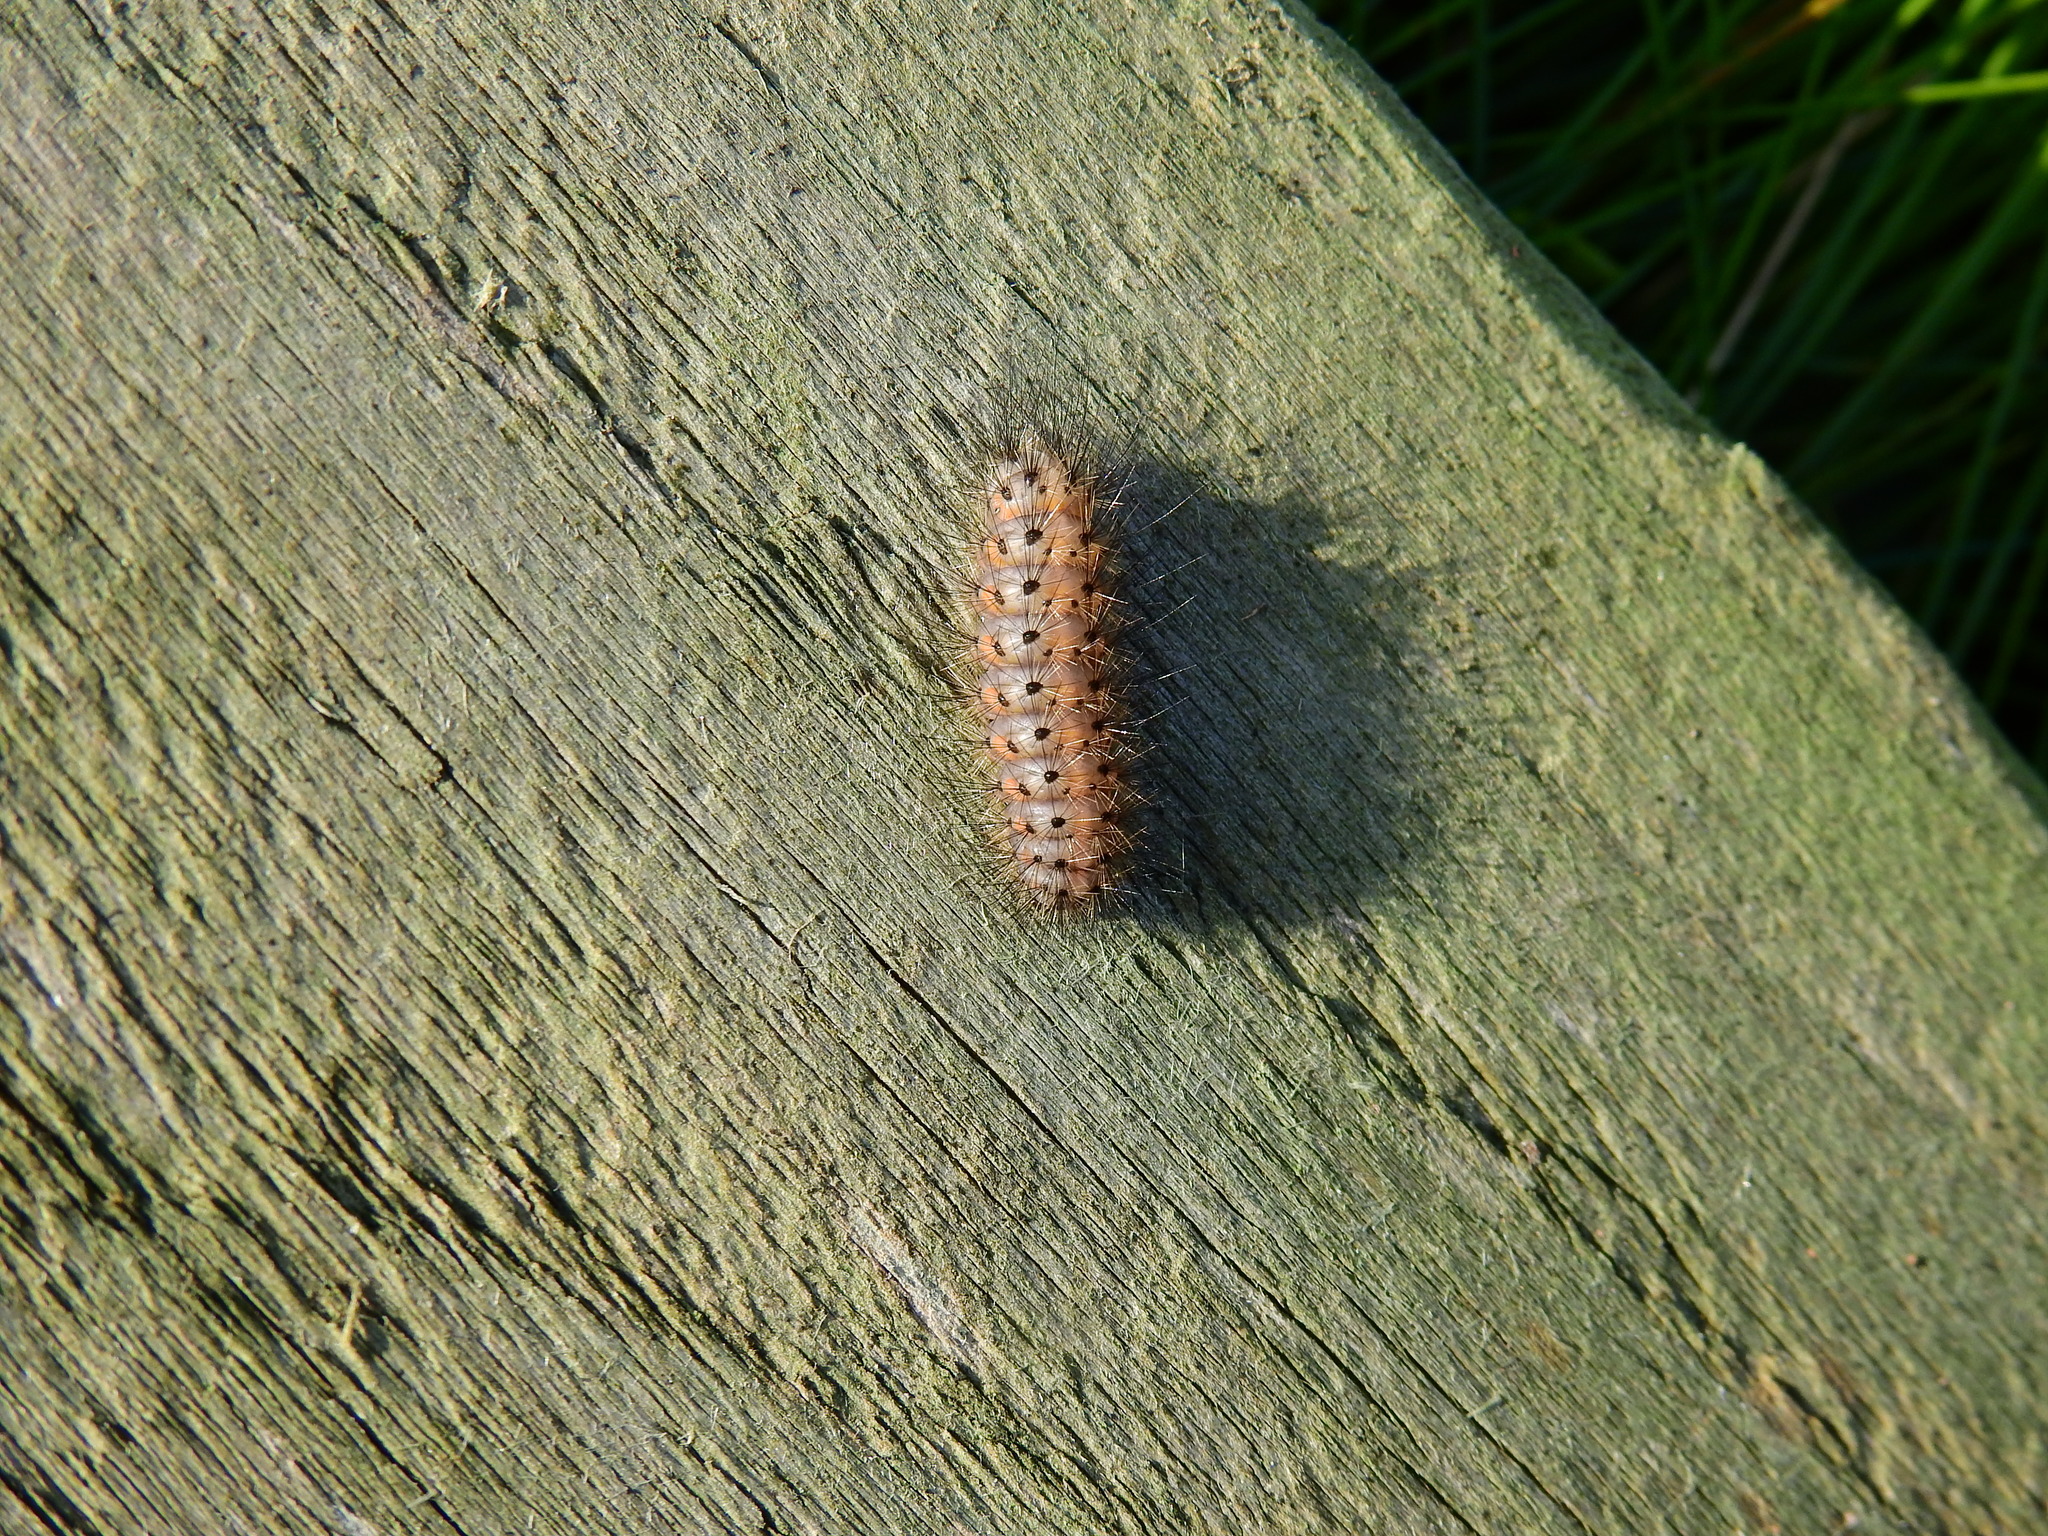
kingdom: Animalia
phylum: Arthropoda
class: Insecta
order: Lepidoptera
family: Erebidae
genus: Spilosoma
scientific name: Spilosoma lubricipeda
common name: White ermine
